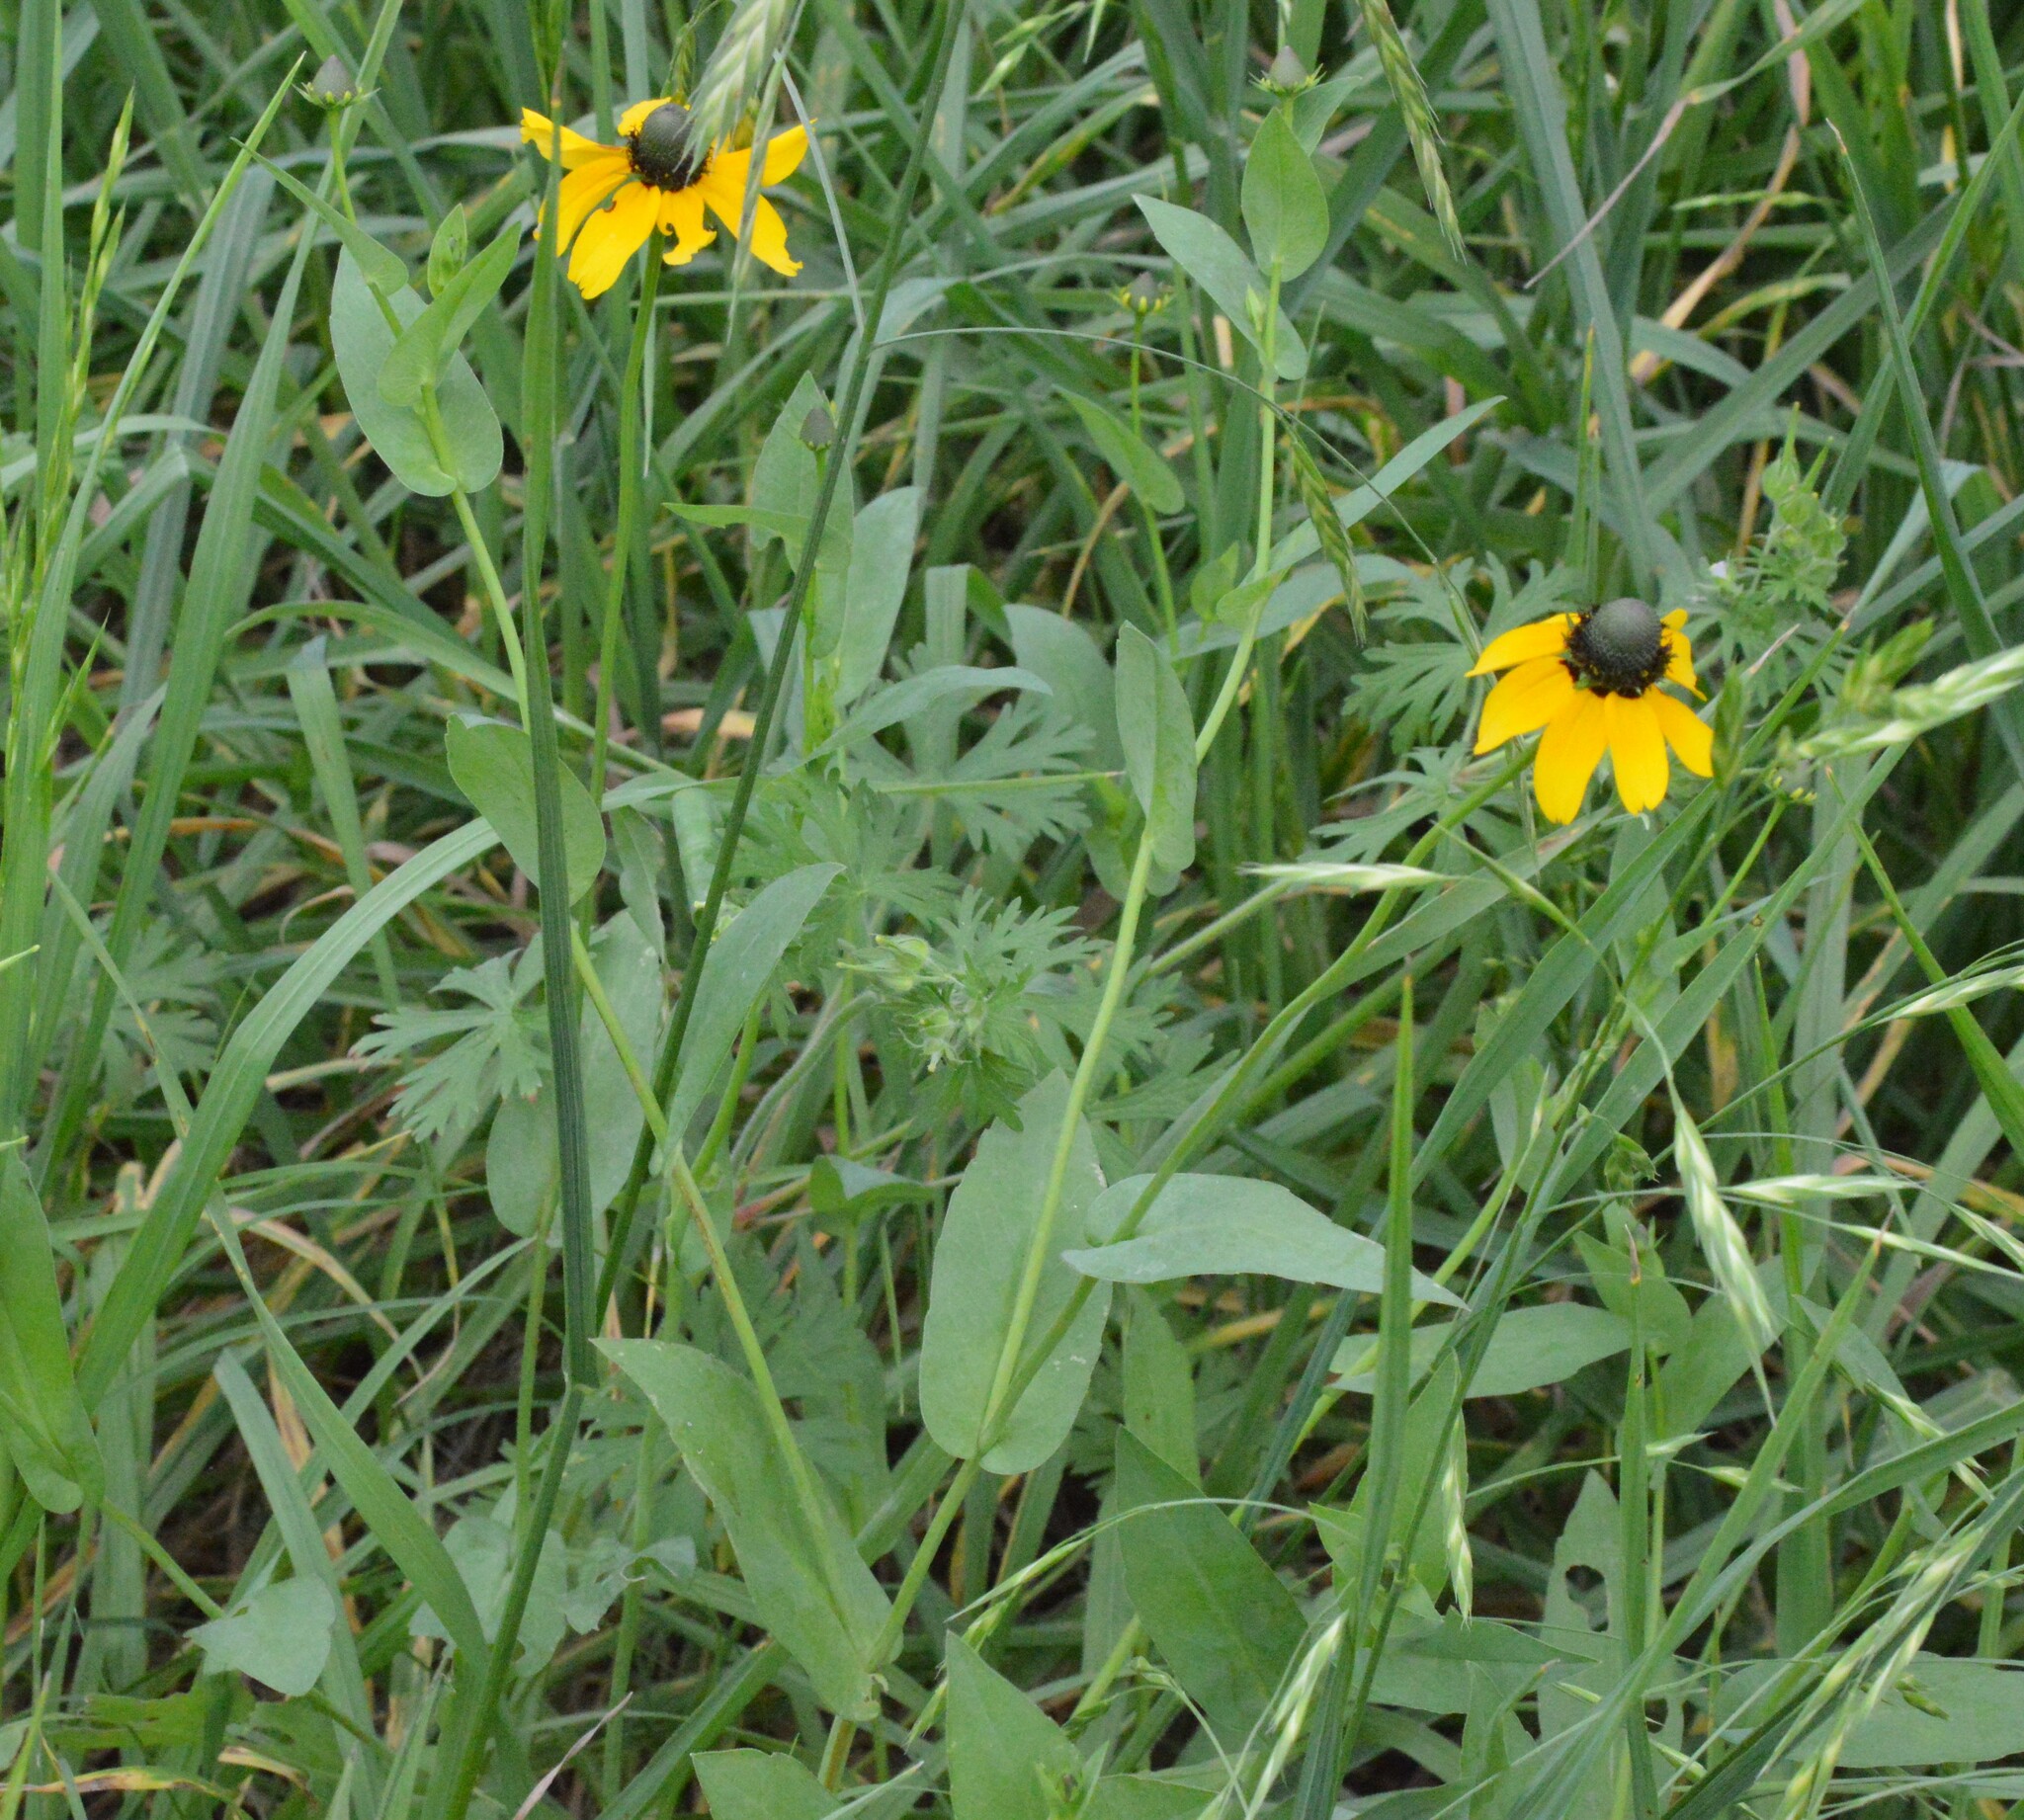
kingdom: Plantae
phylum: Tracheophyta
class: Magnoliopsida
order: Asterales
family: Asteraceae
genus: Rudbeckia
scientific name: Rudbeckia amplexicaulis
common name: Clasping-leaf coneflower
